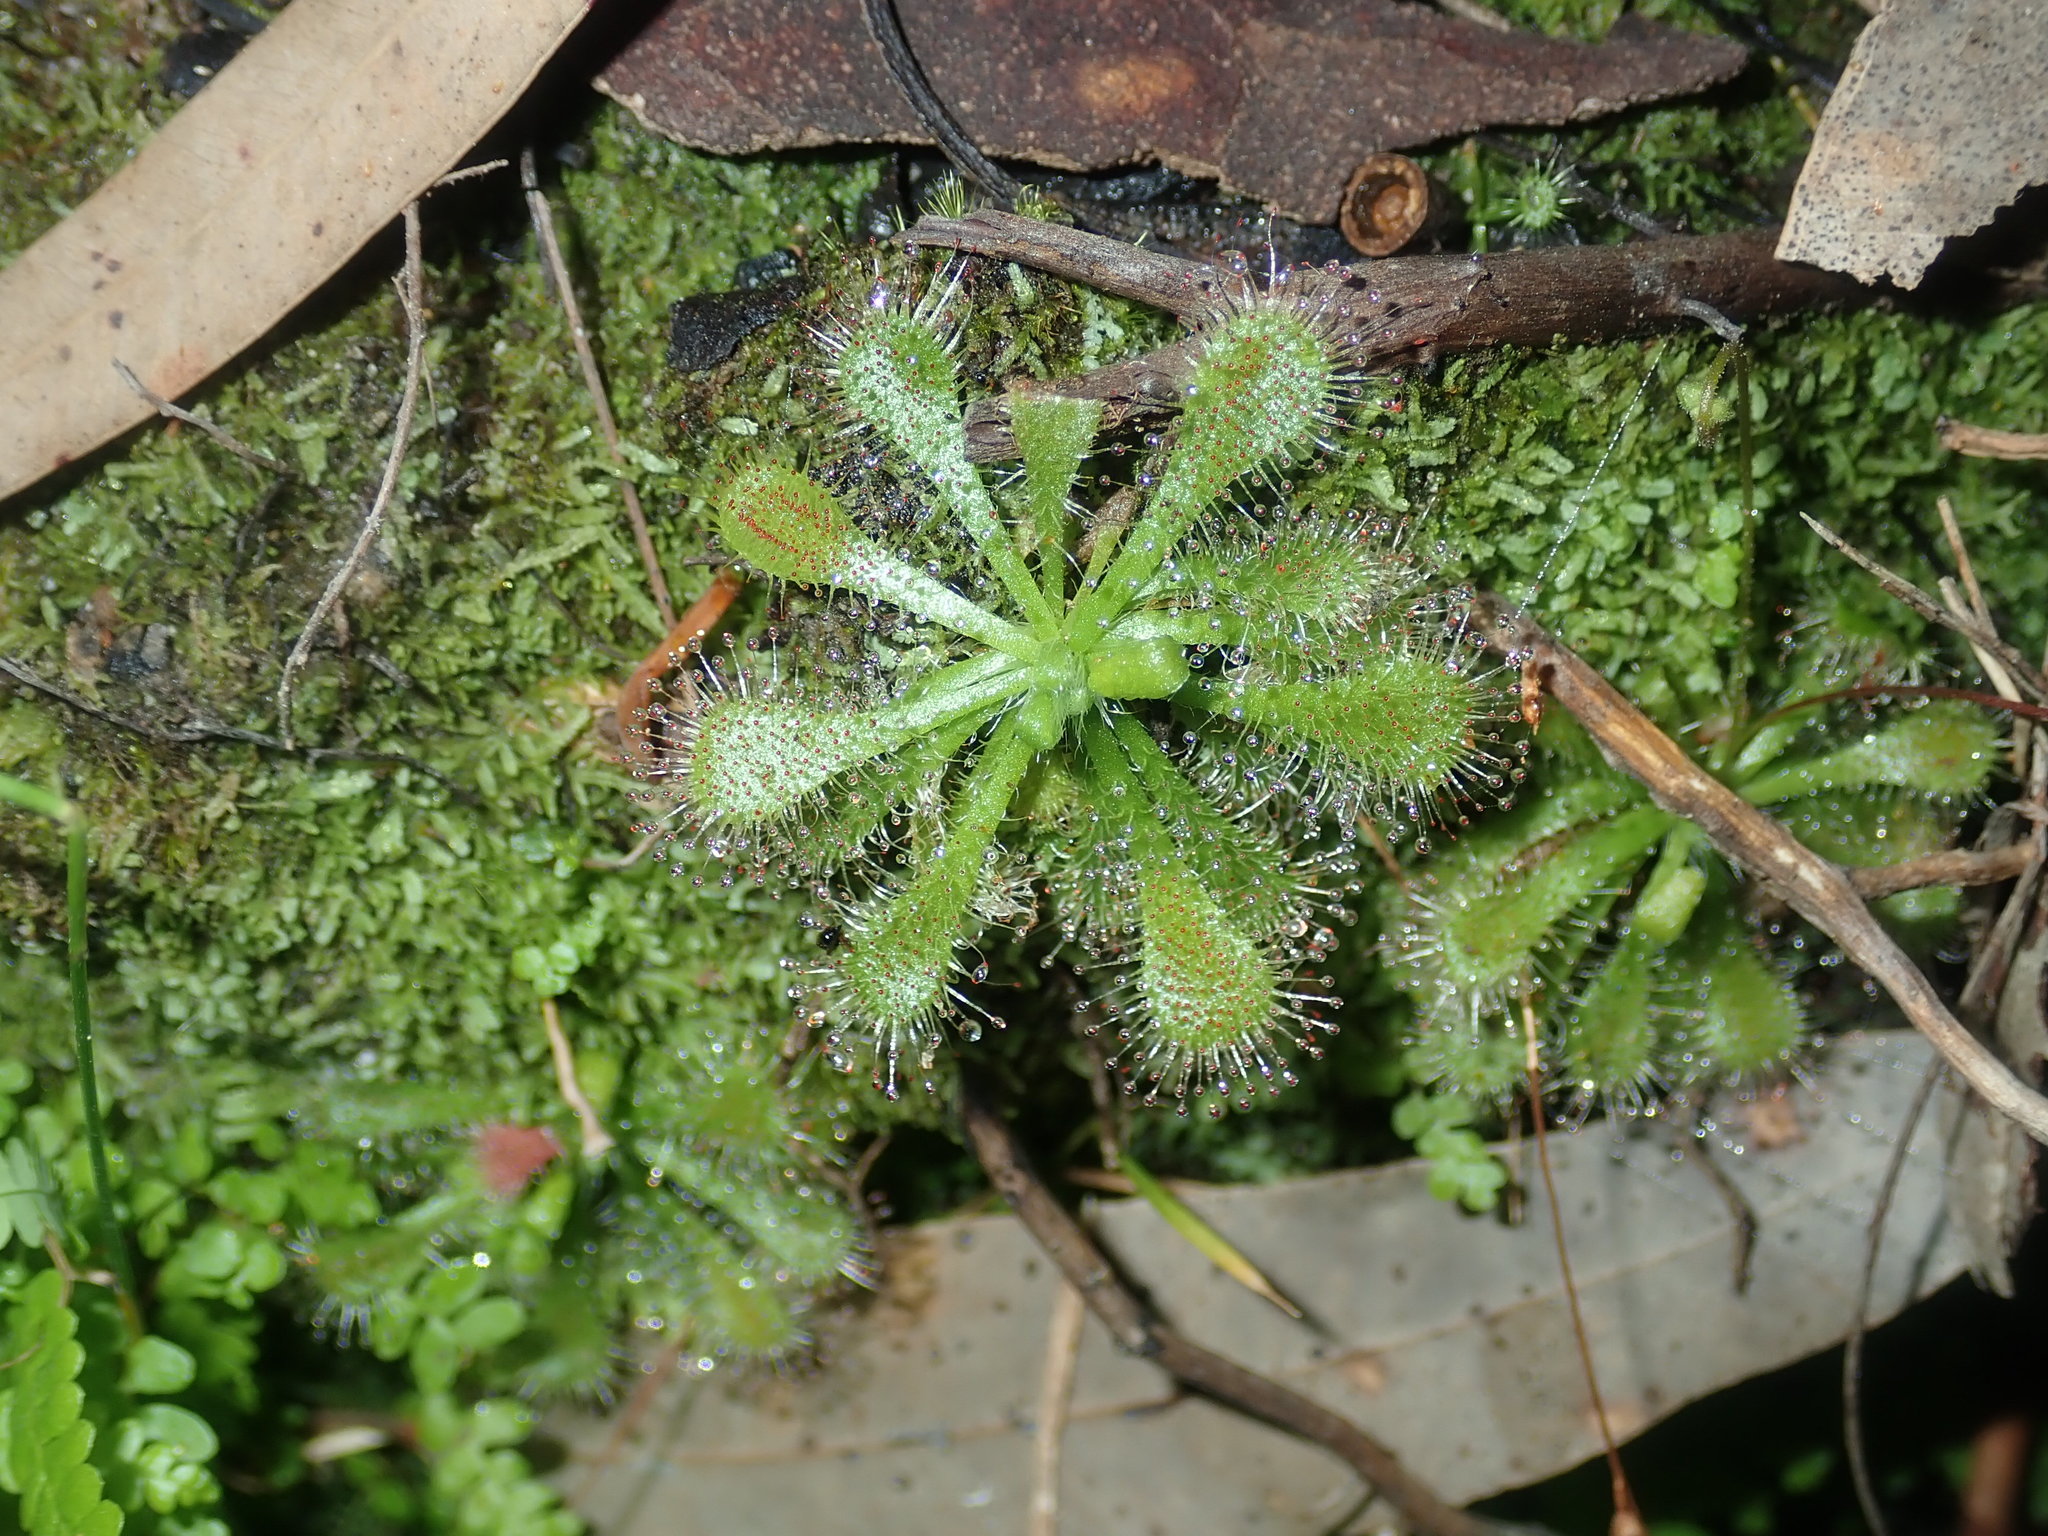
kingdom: Plantae
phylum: Tracheophyta
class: Magnoliopsida
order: Caryophyllales
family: Droseraceae
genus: Drosera
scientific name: Drosera spatulata
